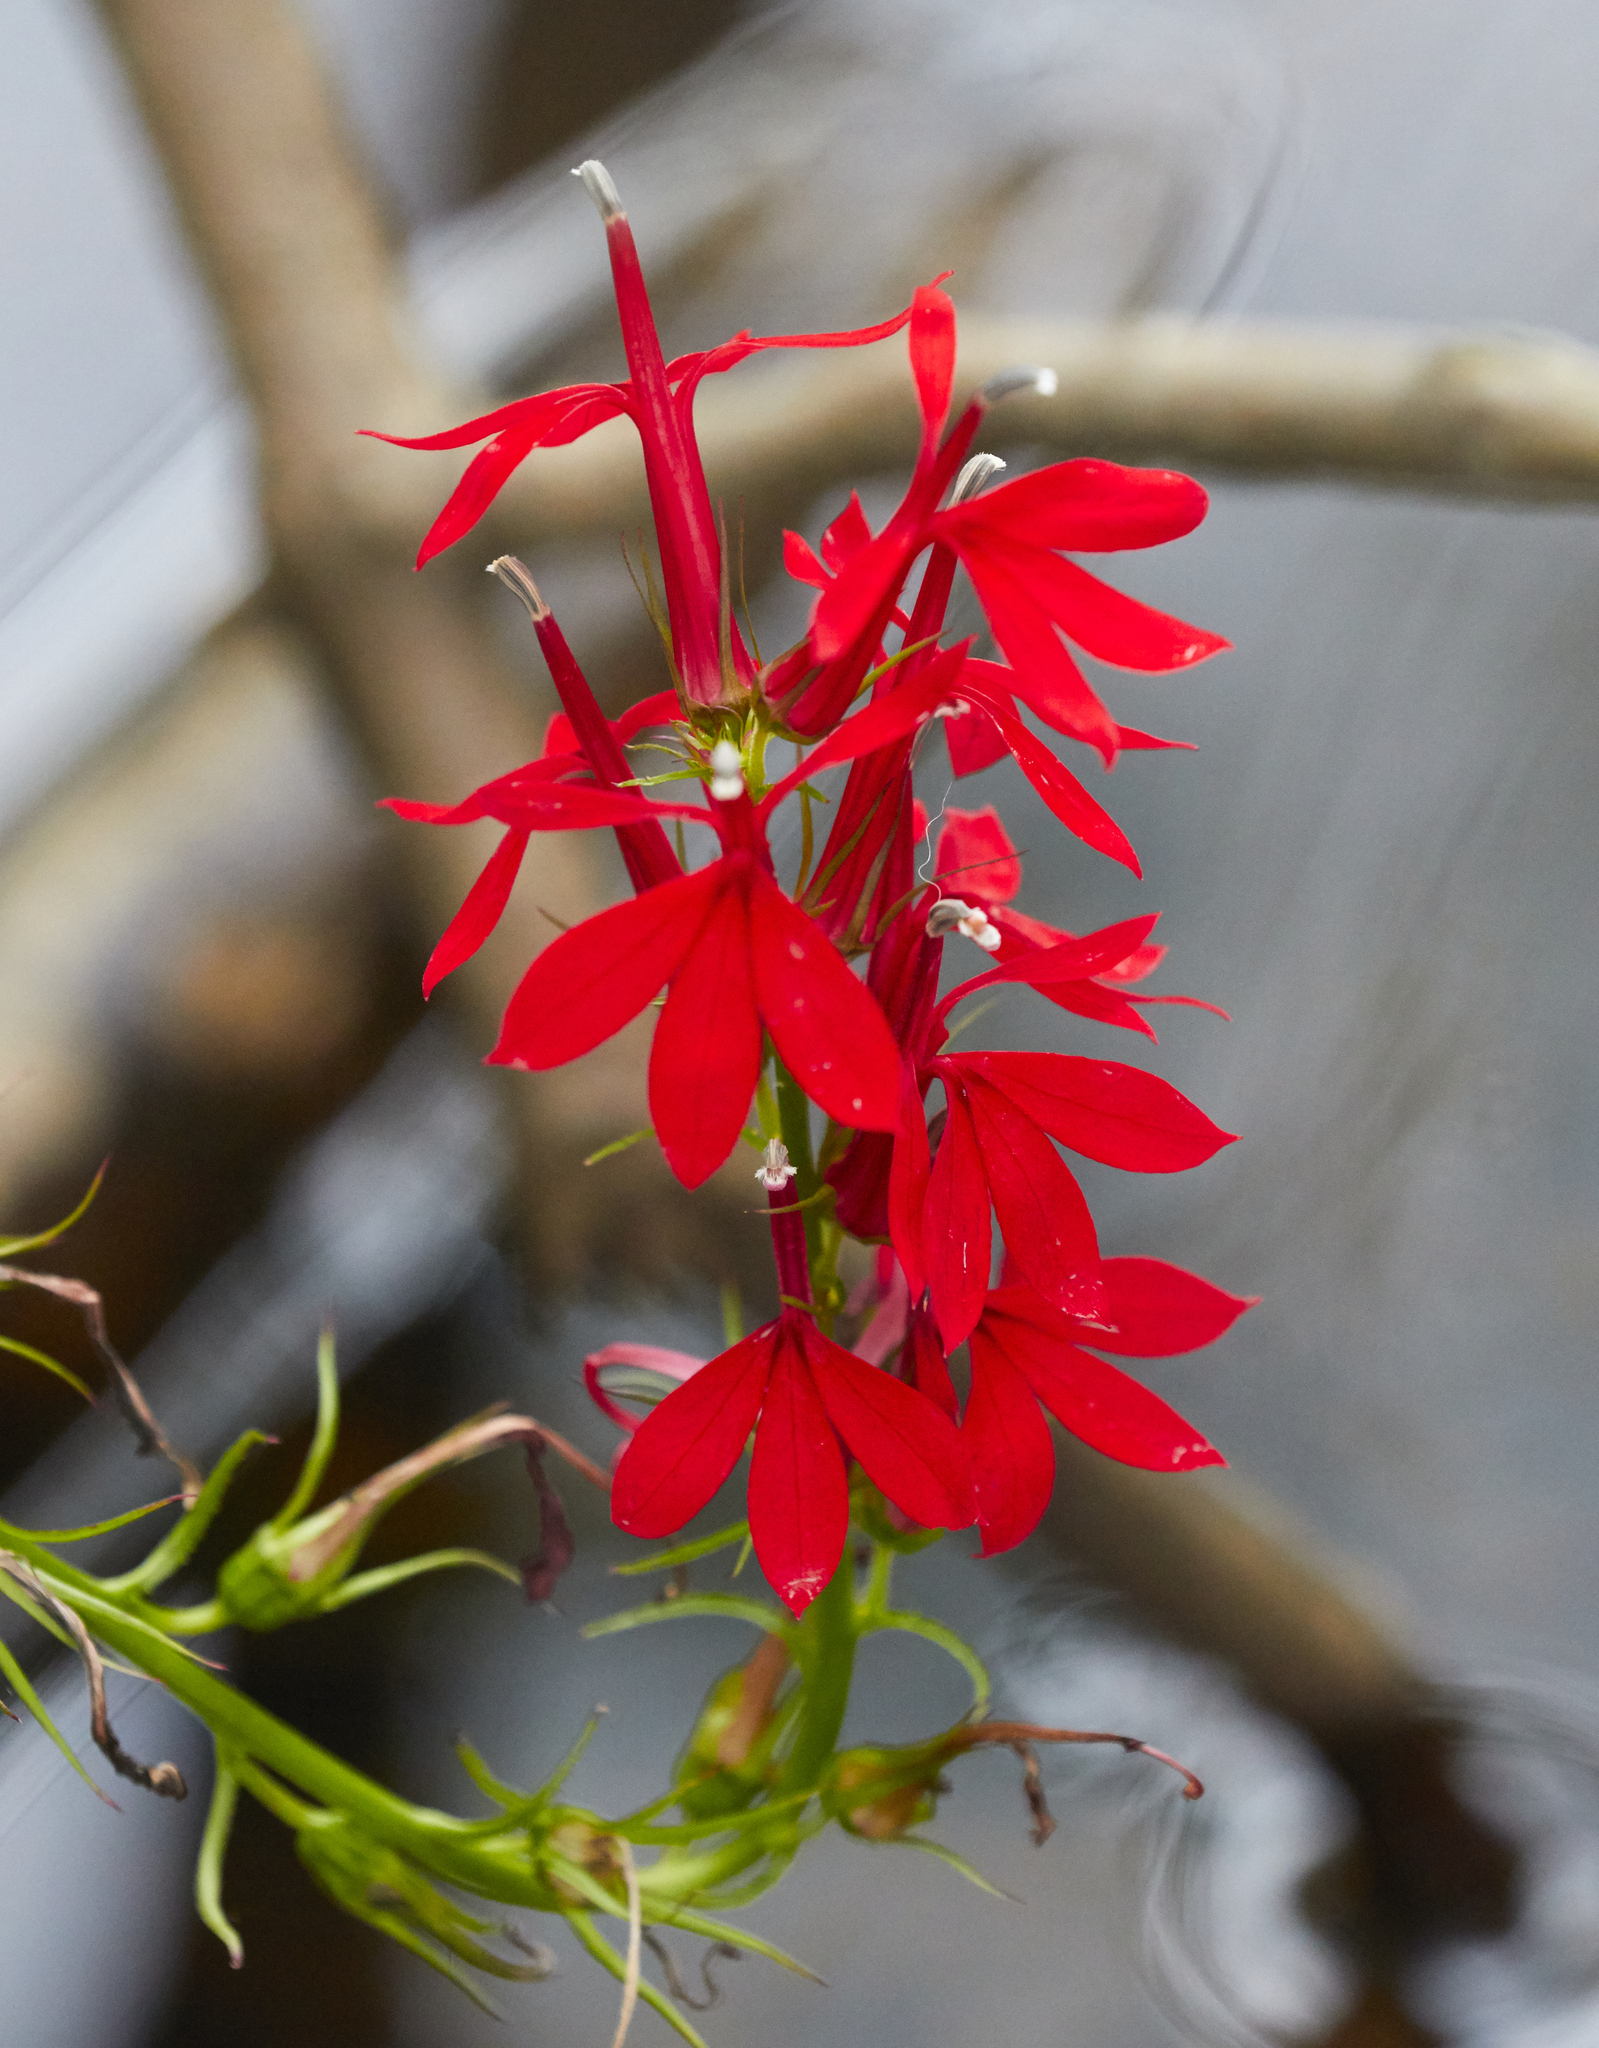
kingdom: Plantae
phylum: Tracheophyta
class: Magnoliopsida
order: Asterales
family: Campanulaceae
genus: Lobelia
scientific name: Lobelia cardinalis
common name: Cardinal flower
